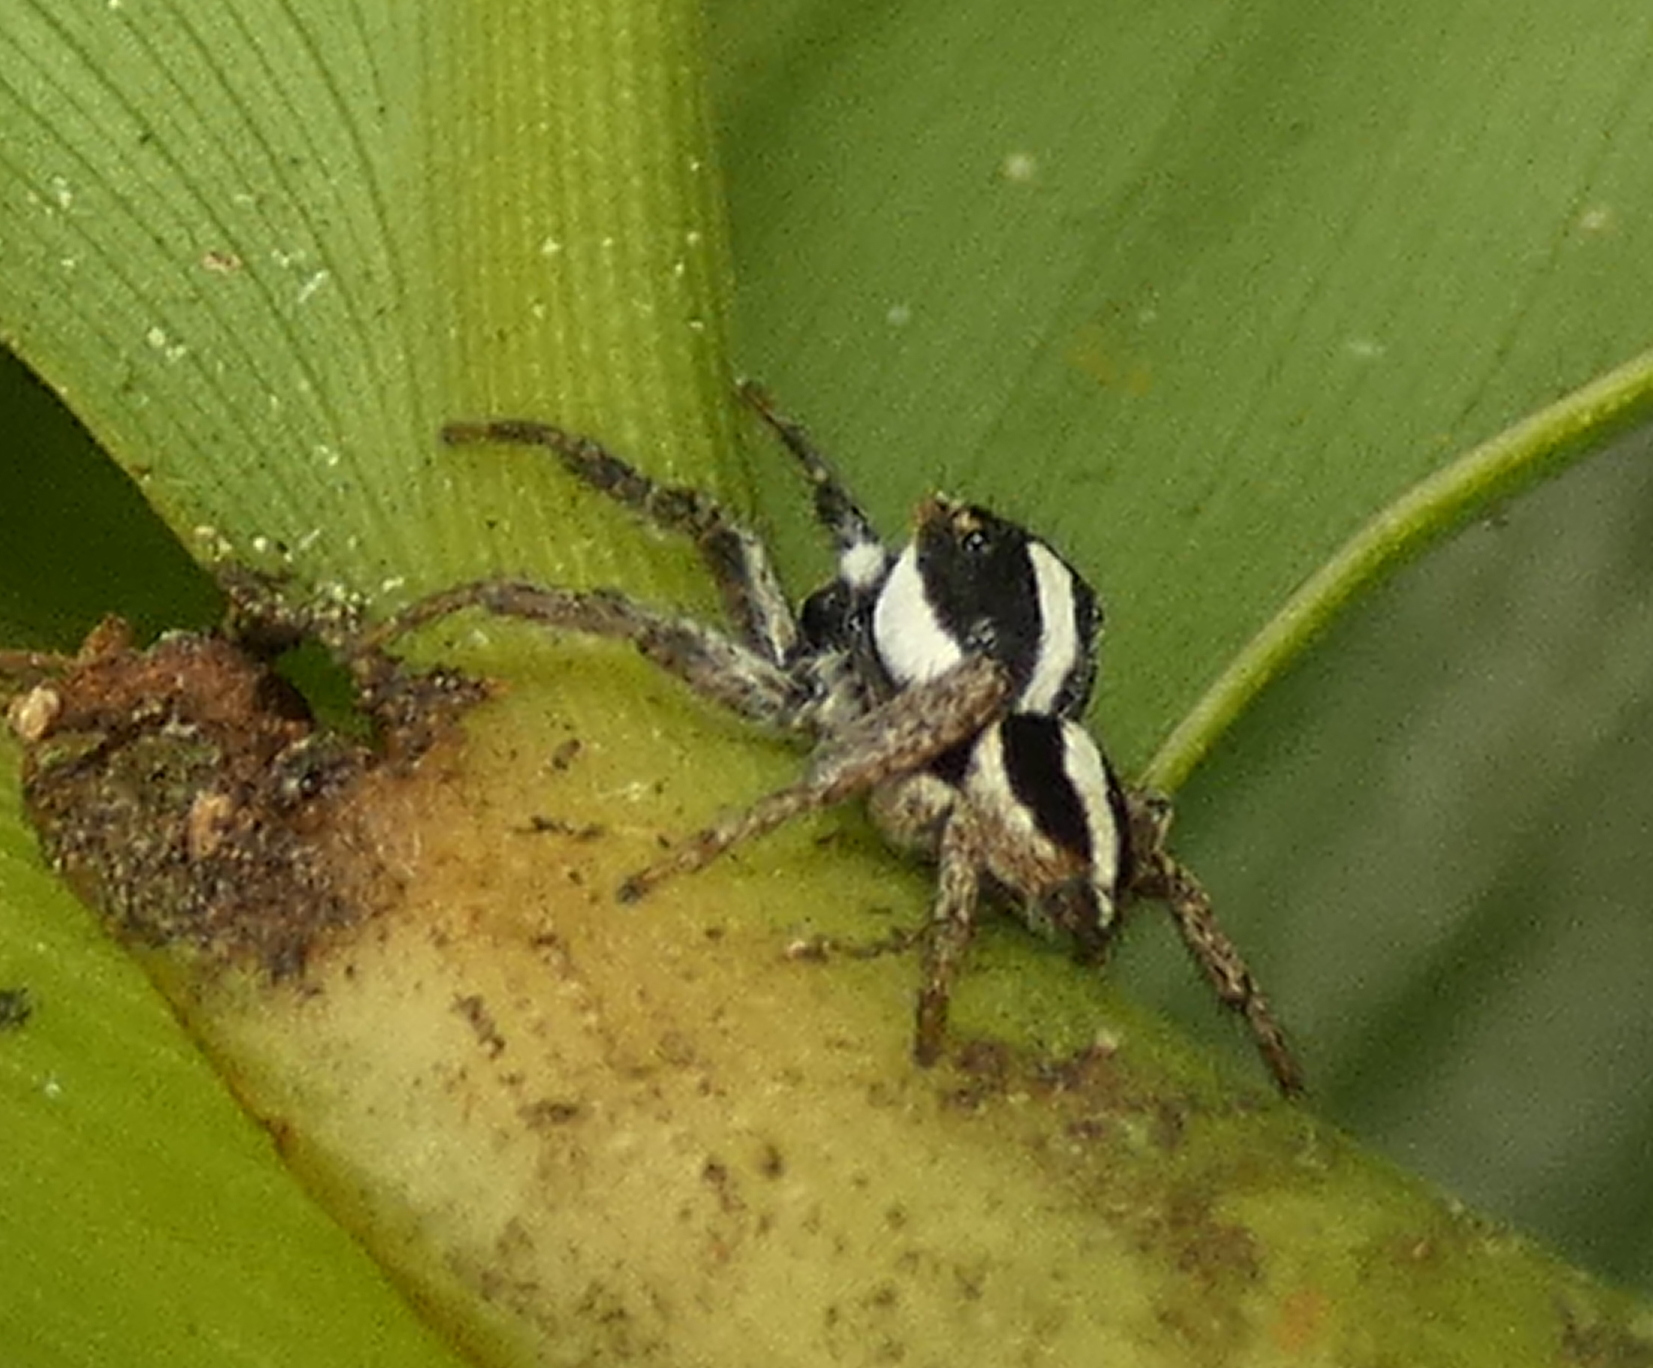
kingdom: Animalia
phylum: Arthropoda
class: Arachnida
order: Araneae
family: Salticidae
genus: Leptofreya
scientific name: Leptofreya ambigua
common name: Jumping spider
